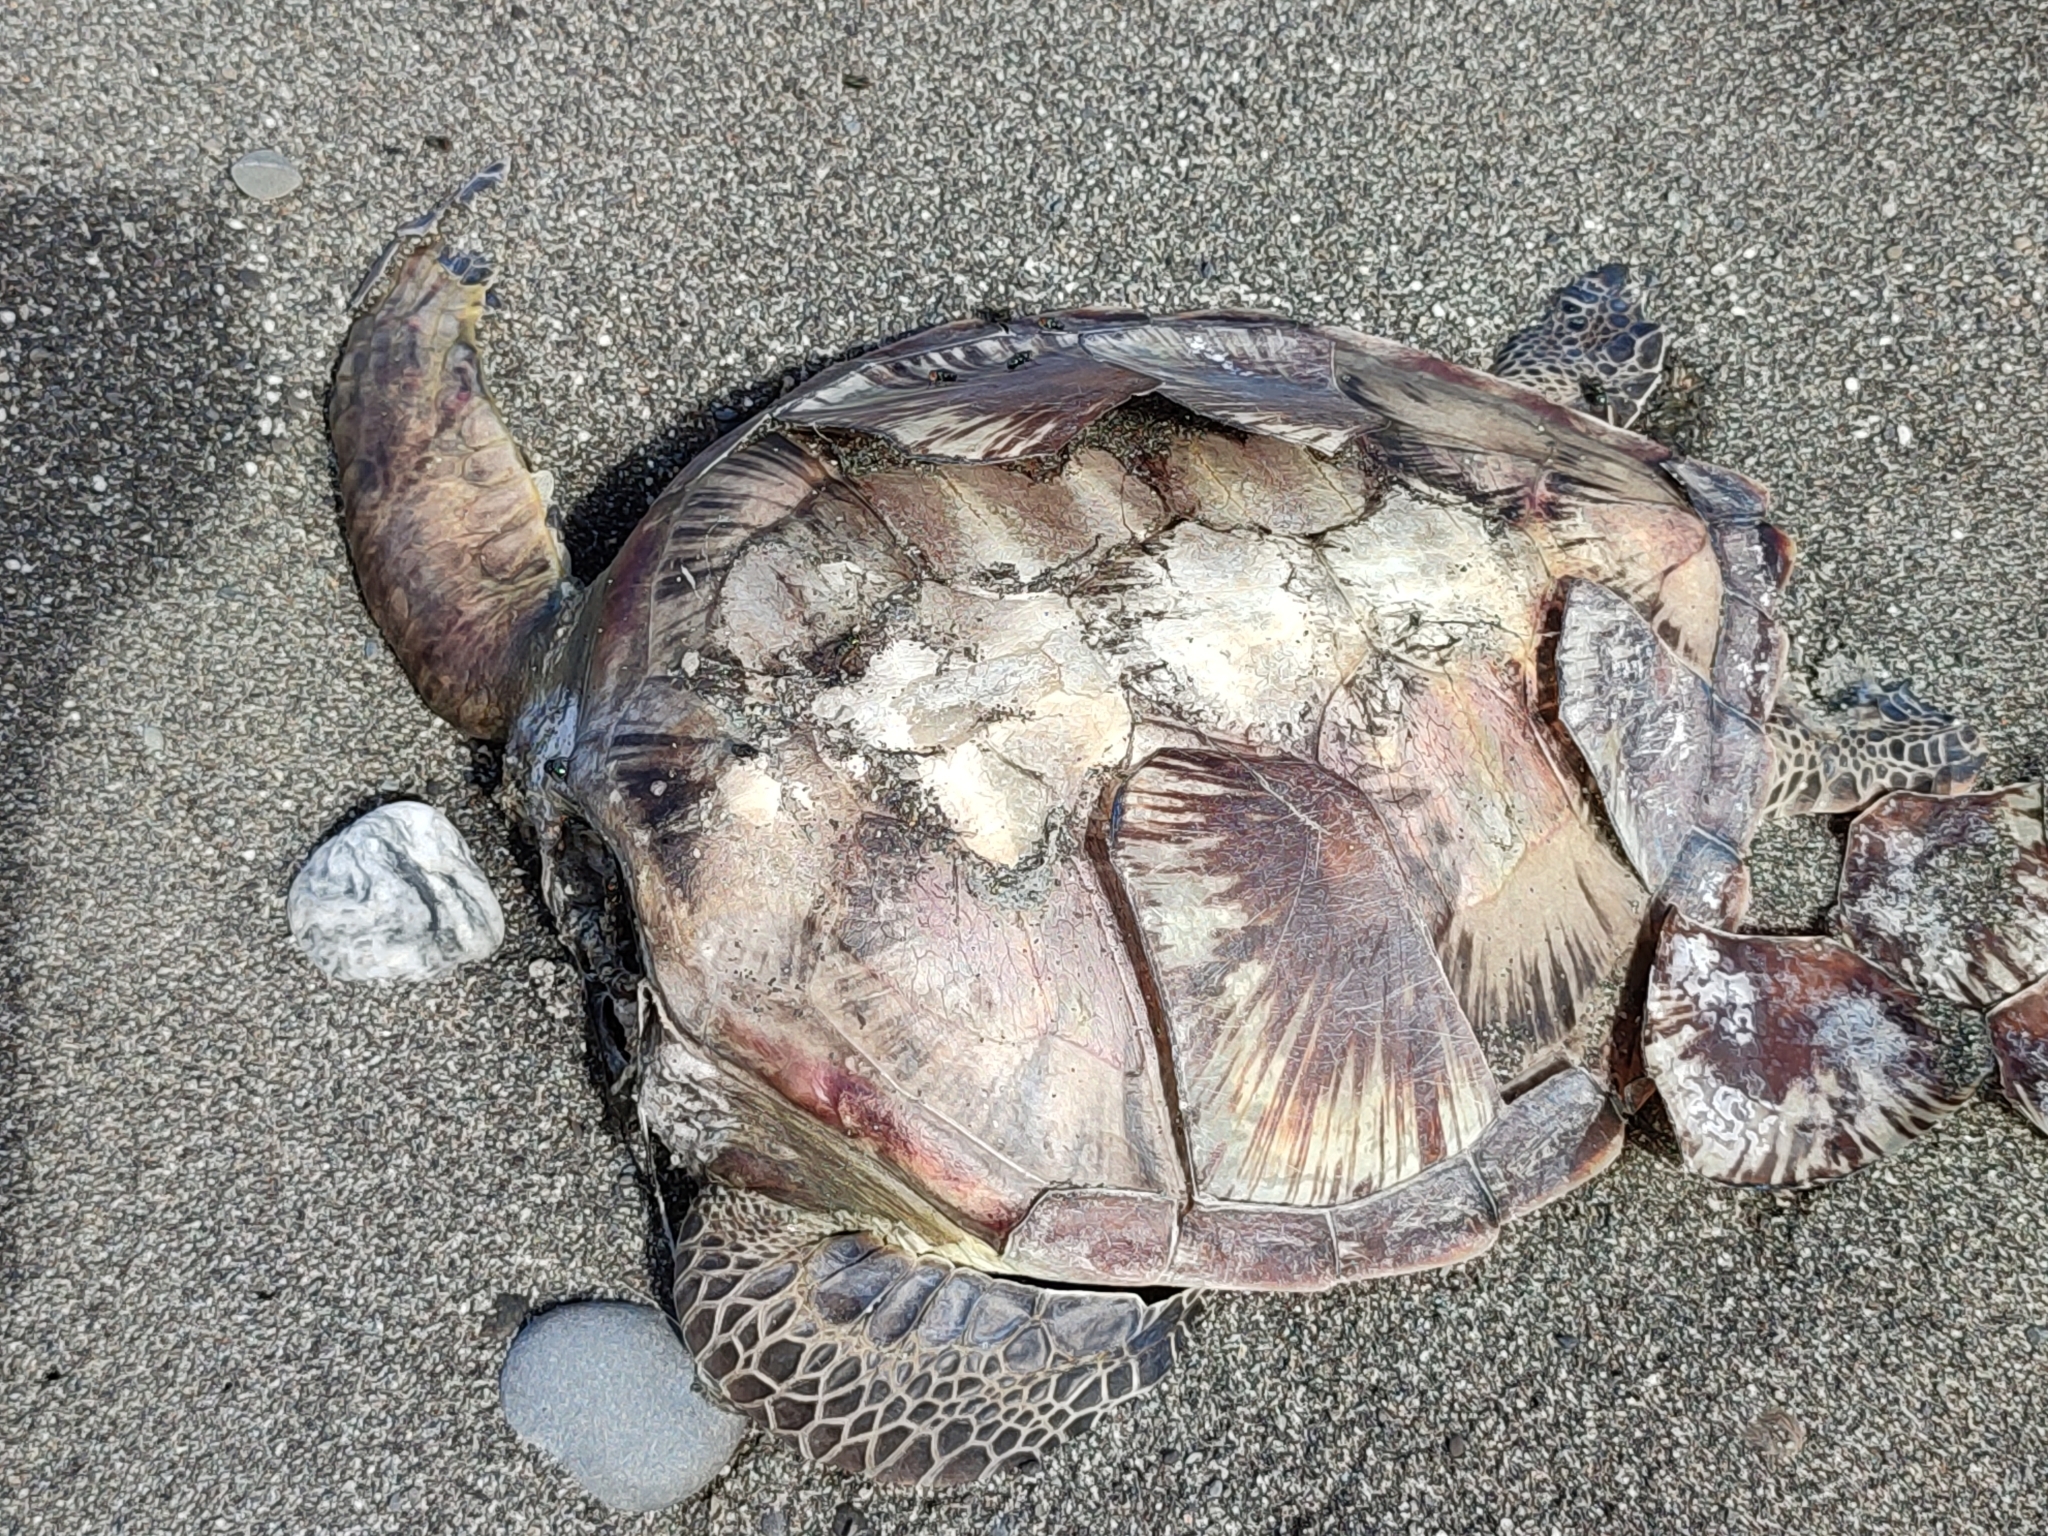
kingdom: Animalia
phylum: Chordata
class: Testudines
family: Cheloniidae
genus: Chelonia
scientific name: Chelonia mydas
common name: Green turtle
